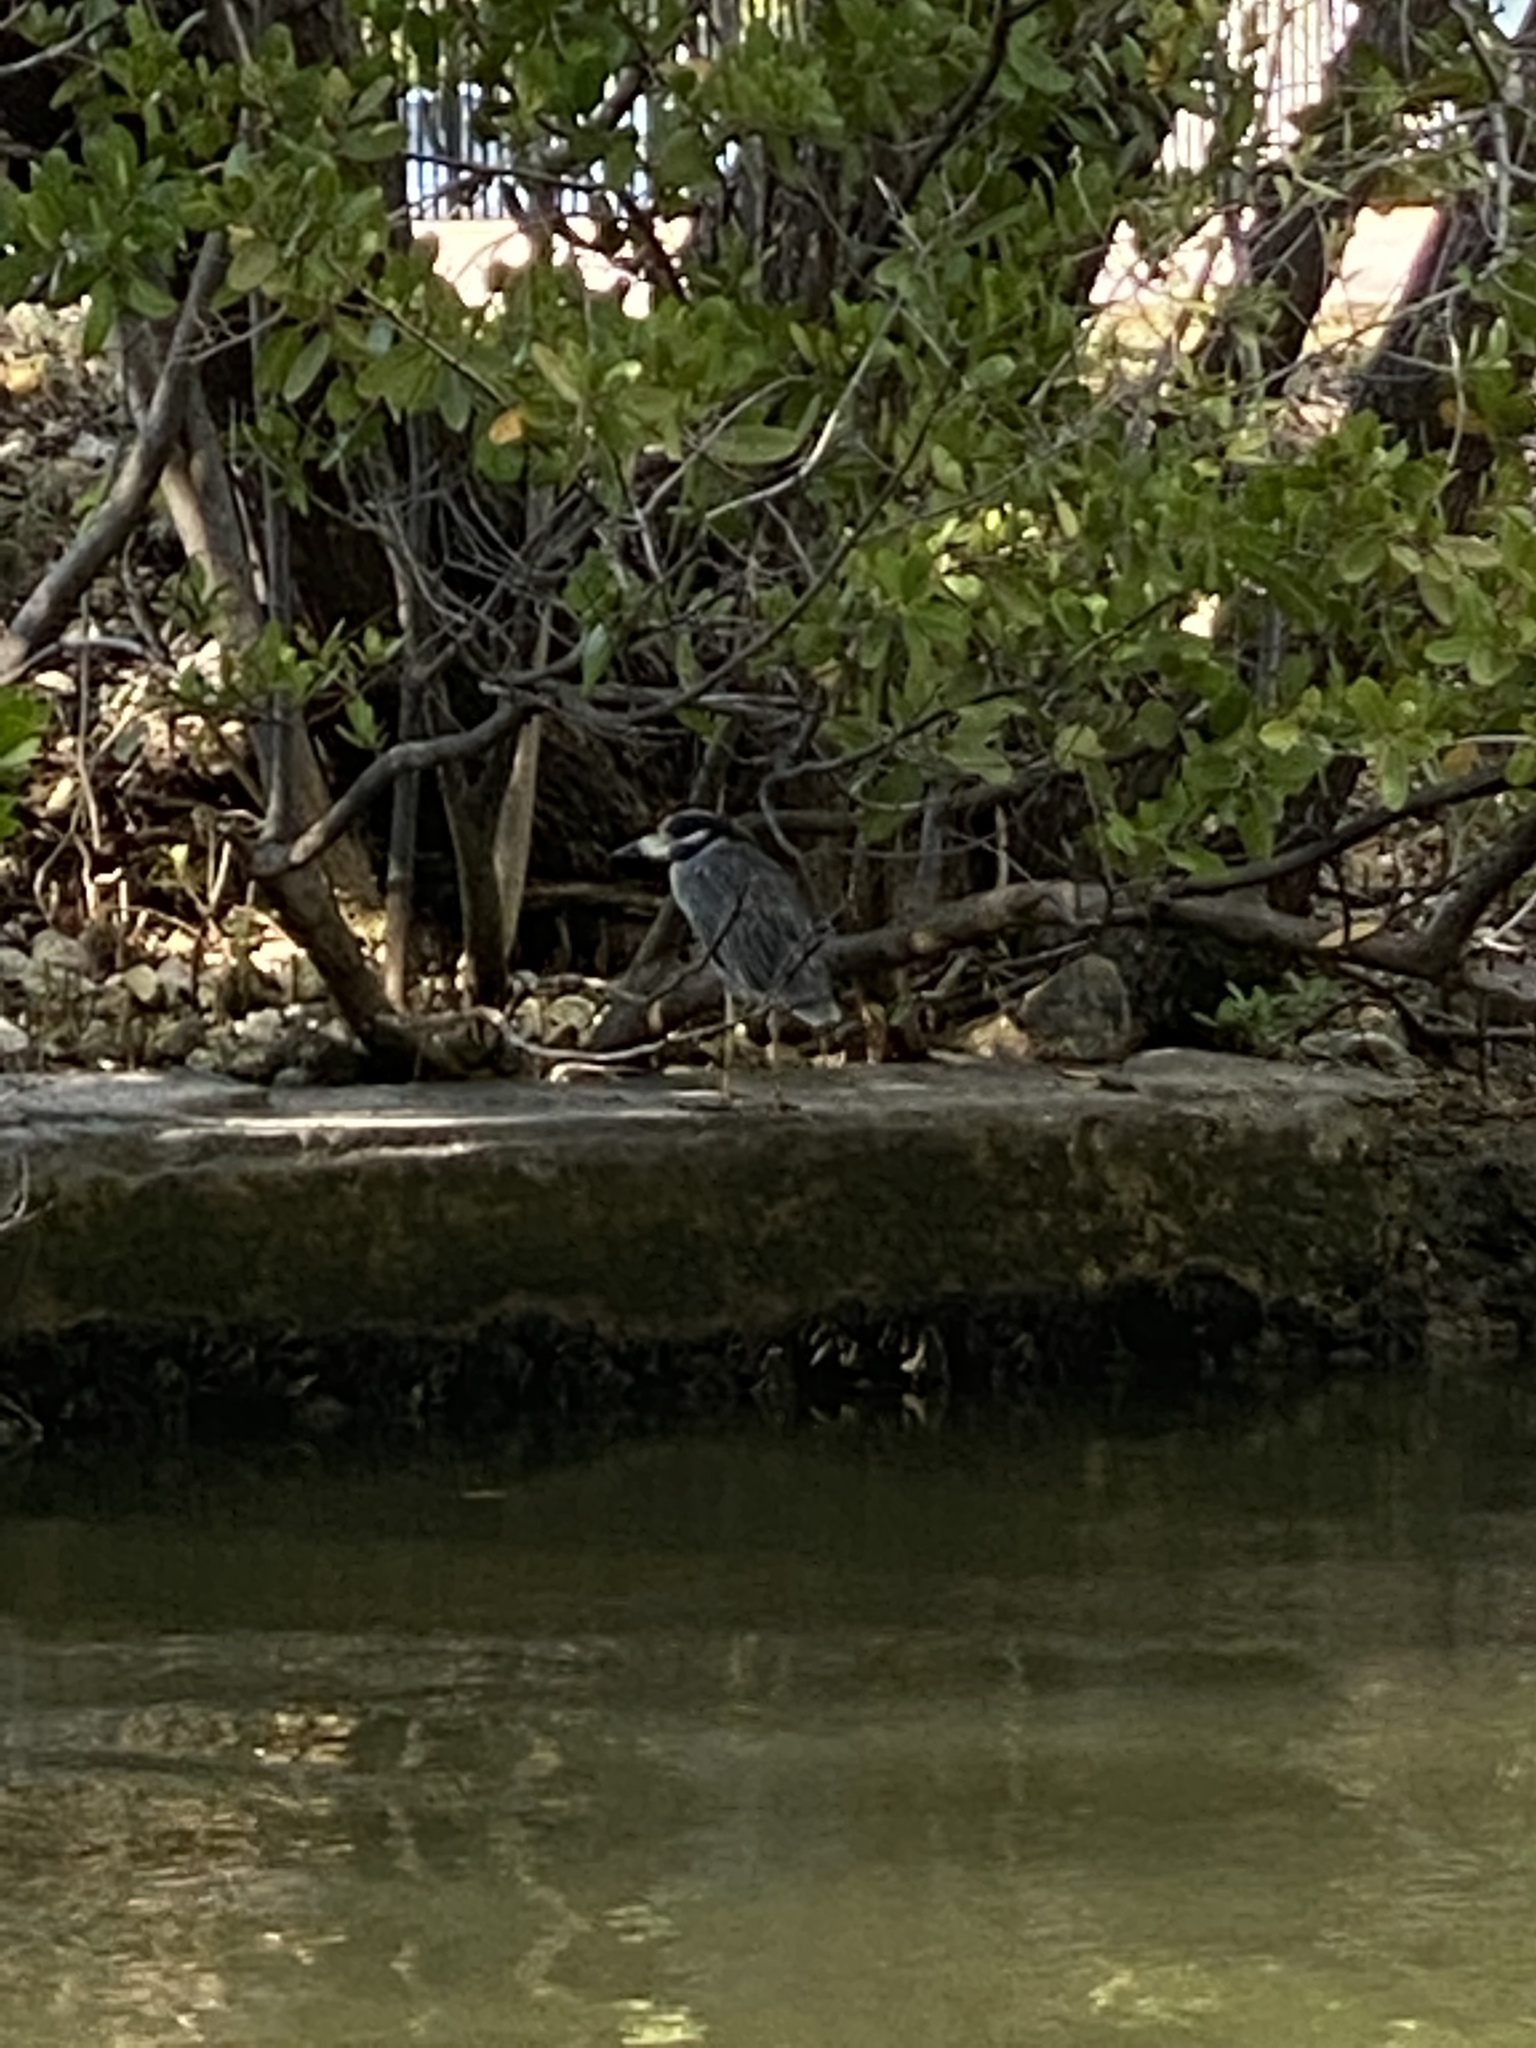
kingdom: Animalia
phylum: Chordata
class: Aves
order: Pelecaniformes
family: Ardeidae
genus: Nyctanassa
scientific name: Nyctanassa violacea
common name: Yellow-crowned night heron
